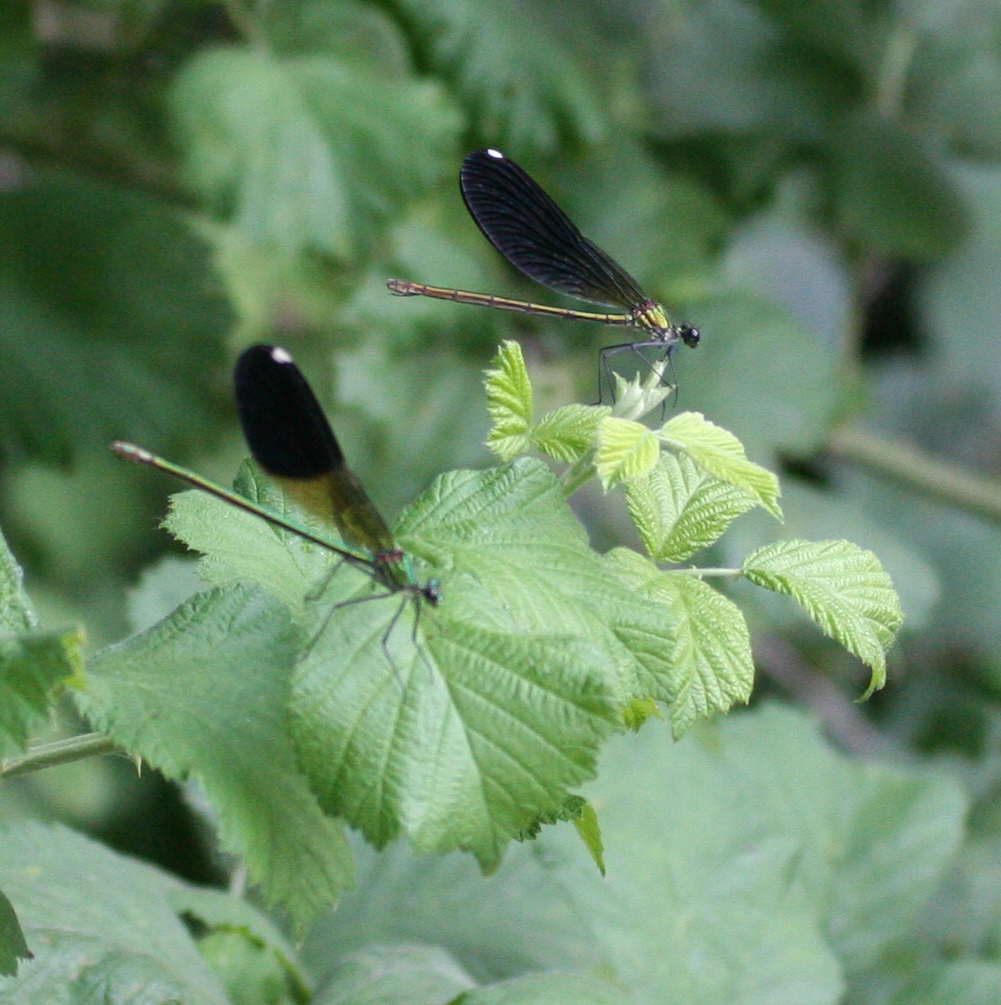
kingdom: Animalia
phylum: Arthropoda
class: Insecta
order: Odonata
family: Calopterygidae
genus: Calopteryx
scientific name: Calopteryx splendens
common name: Banded demoiselle
